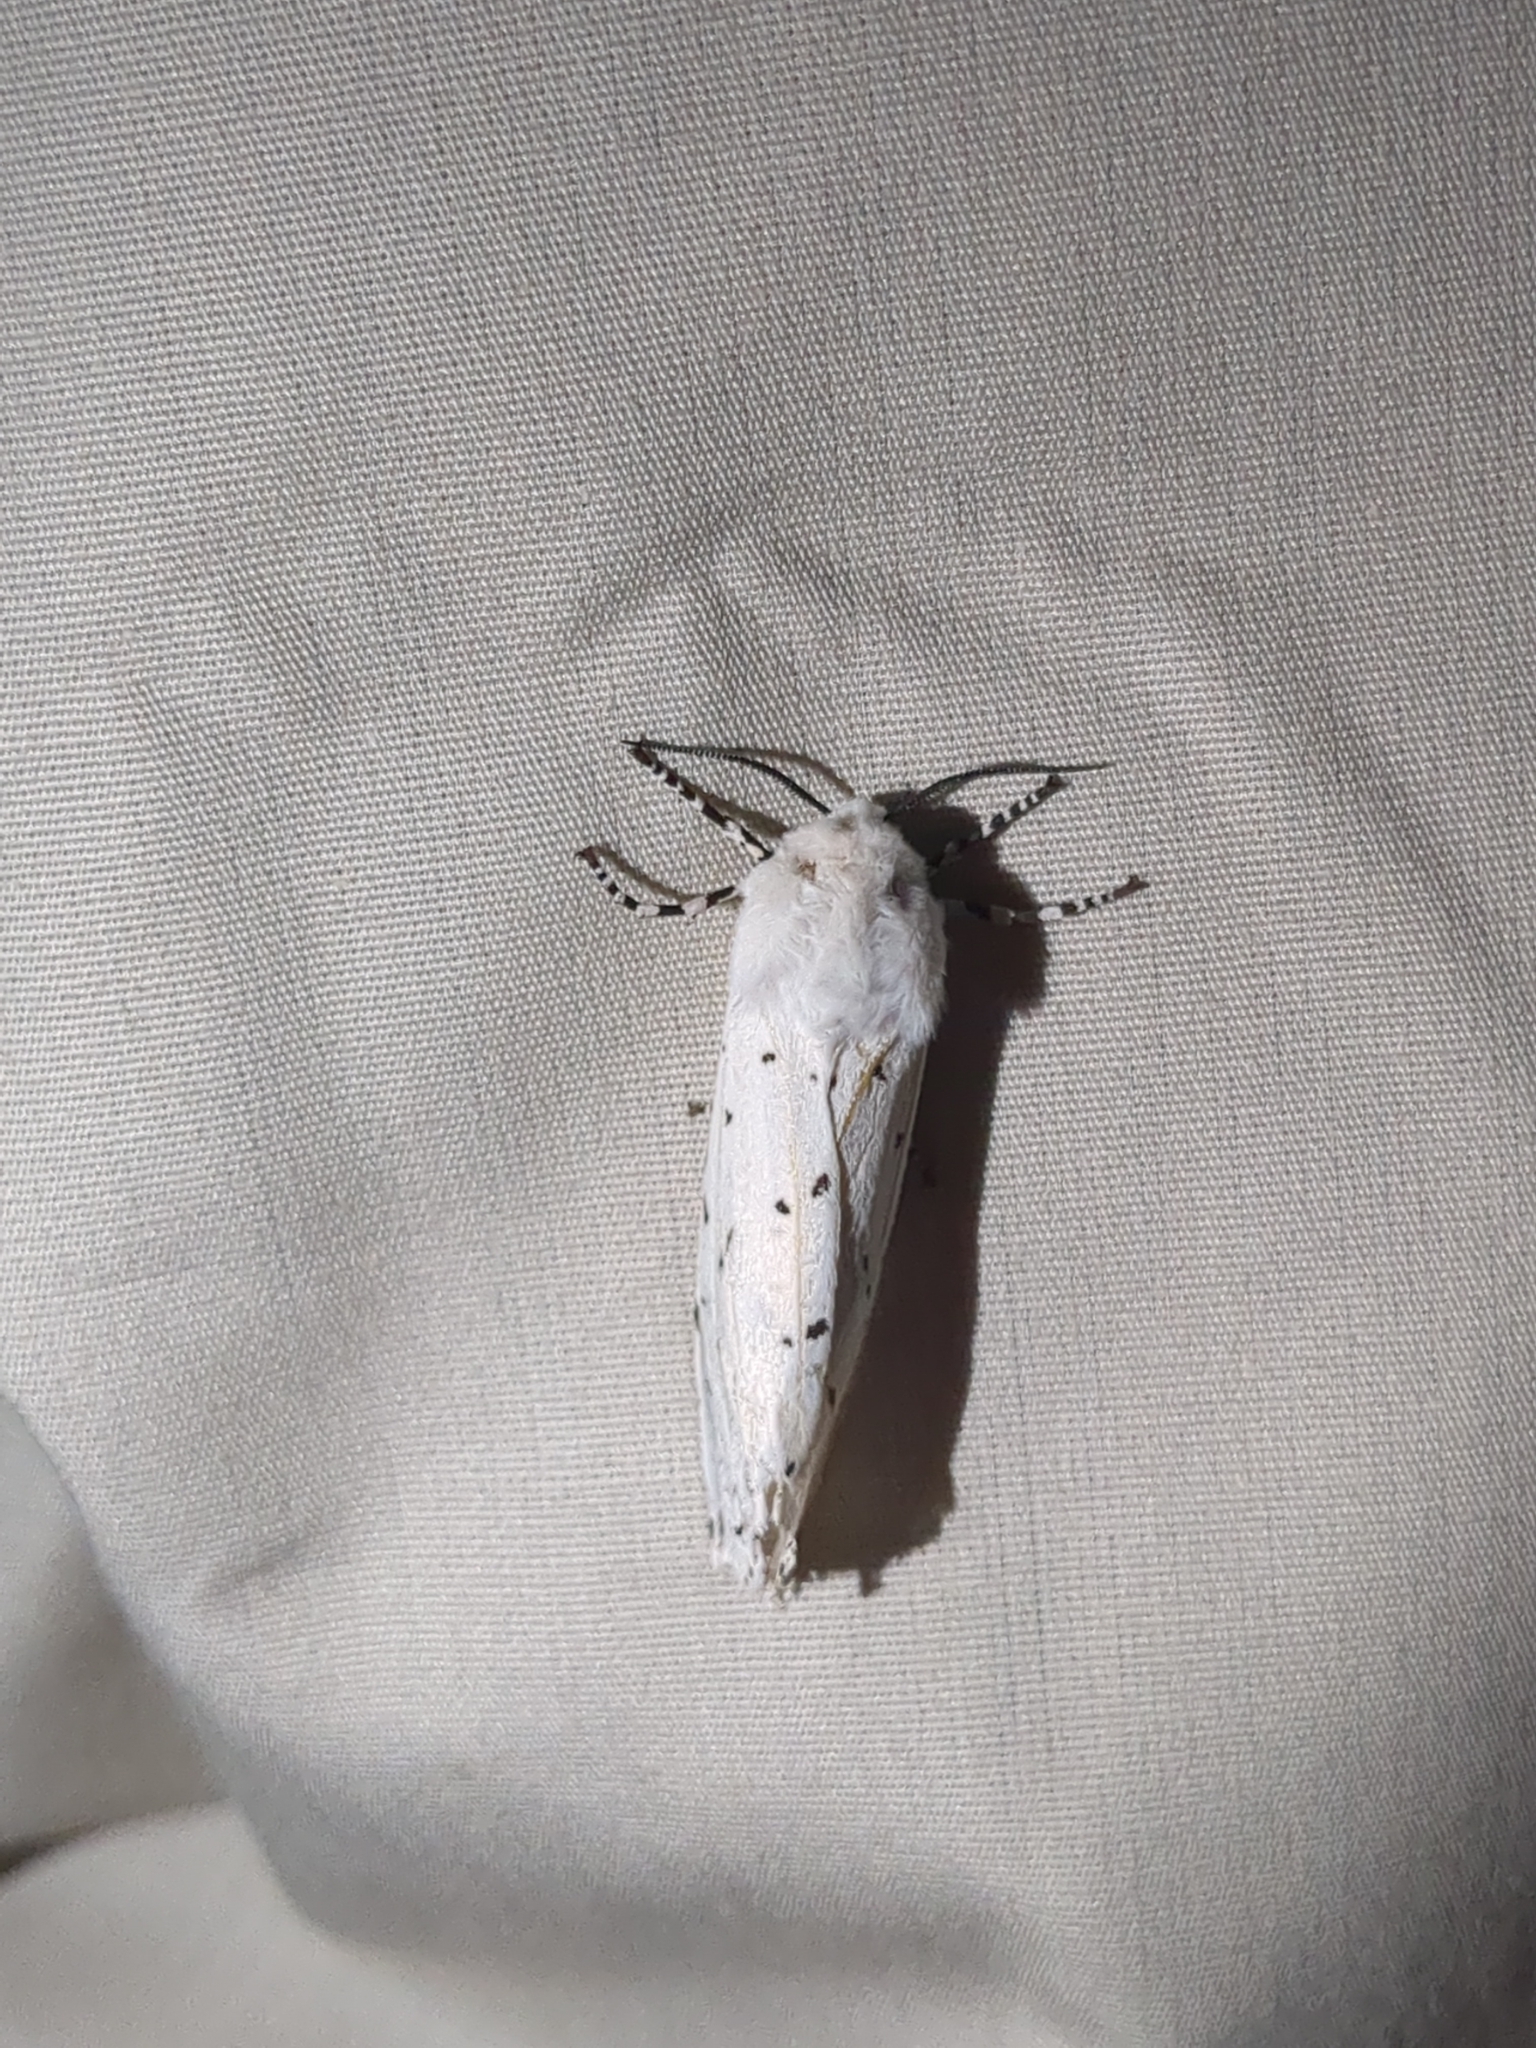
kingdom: Animalia
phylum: Arthropoda
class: Insecta
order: Lepidoptera
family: Erebidae
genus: Estigmene
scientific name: Estigmene acrea
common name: Salt marsh moth
